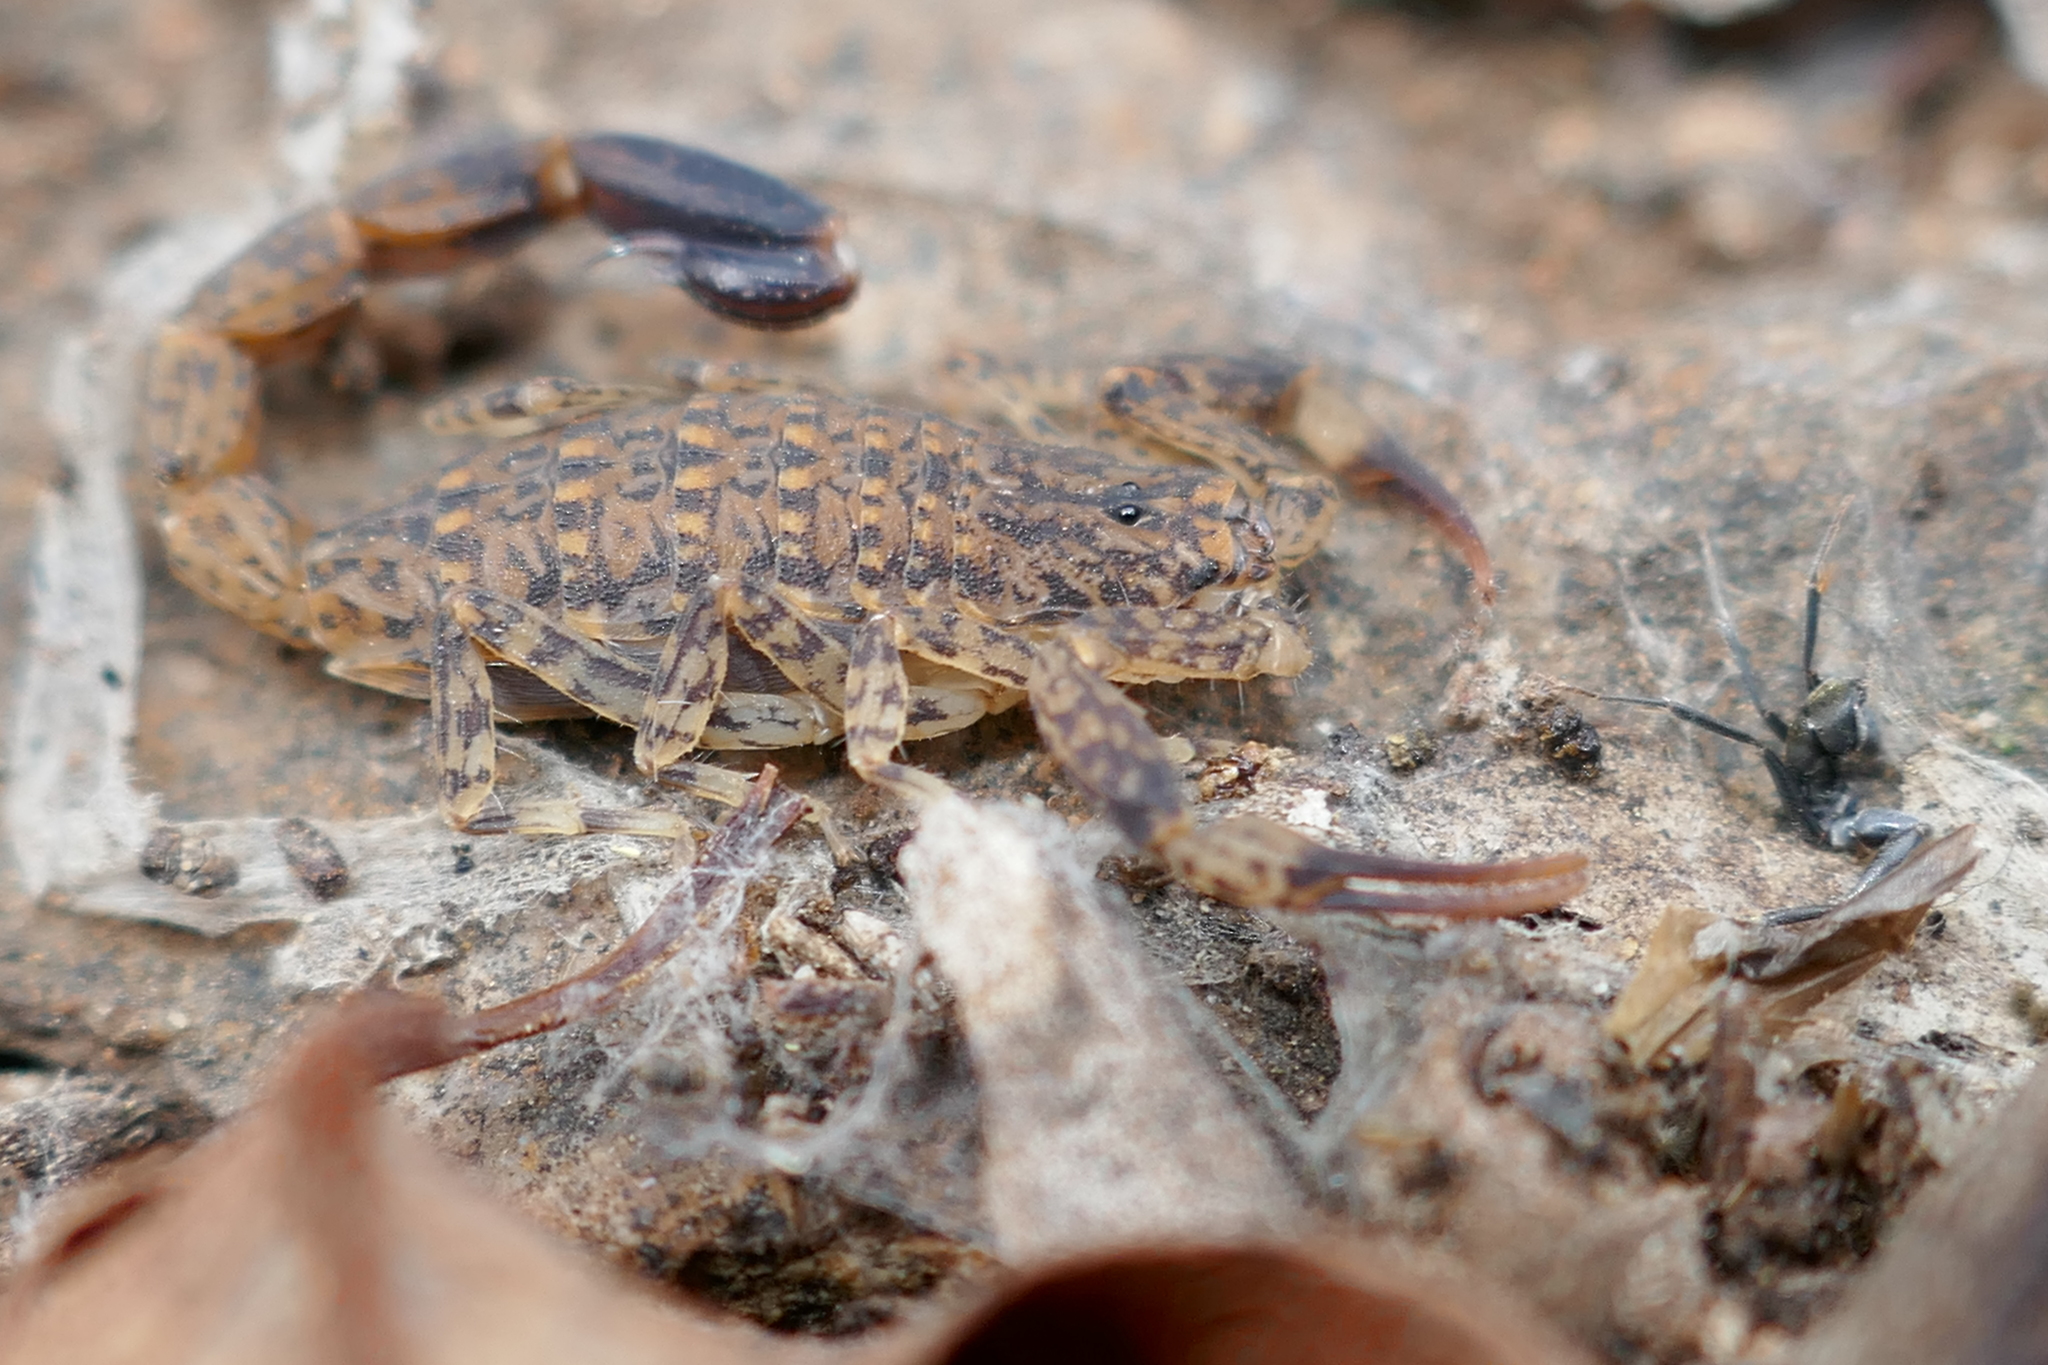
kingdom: Animalia
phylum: Arthropoda
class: Arachnida
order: Scorpiones
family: Buthidae
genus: Lychas
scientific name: Lychas marmoreus
